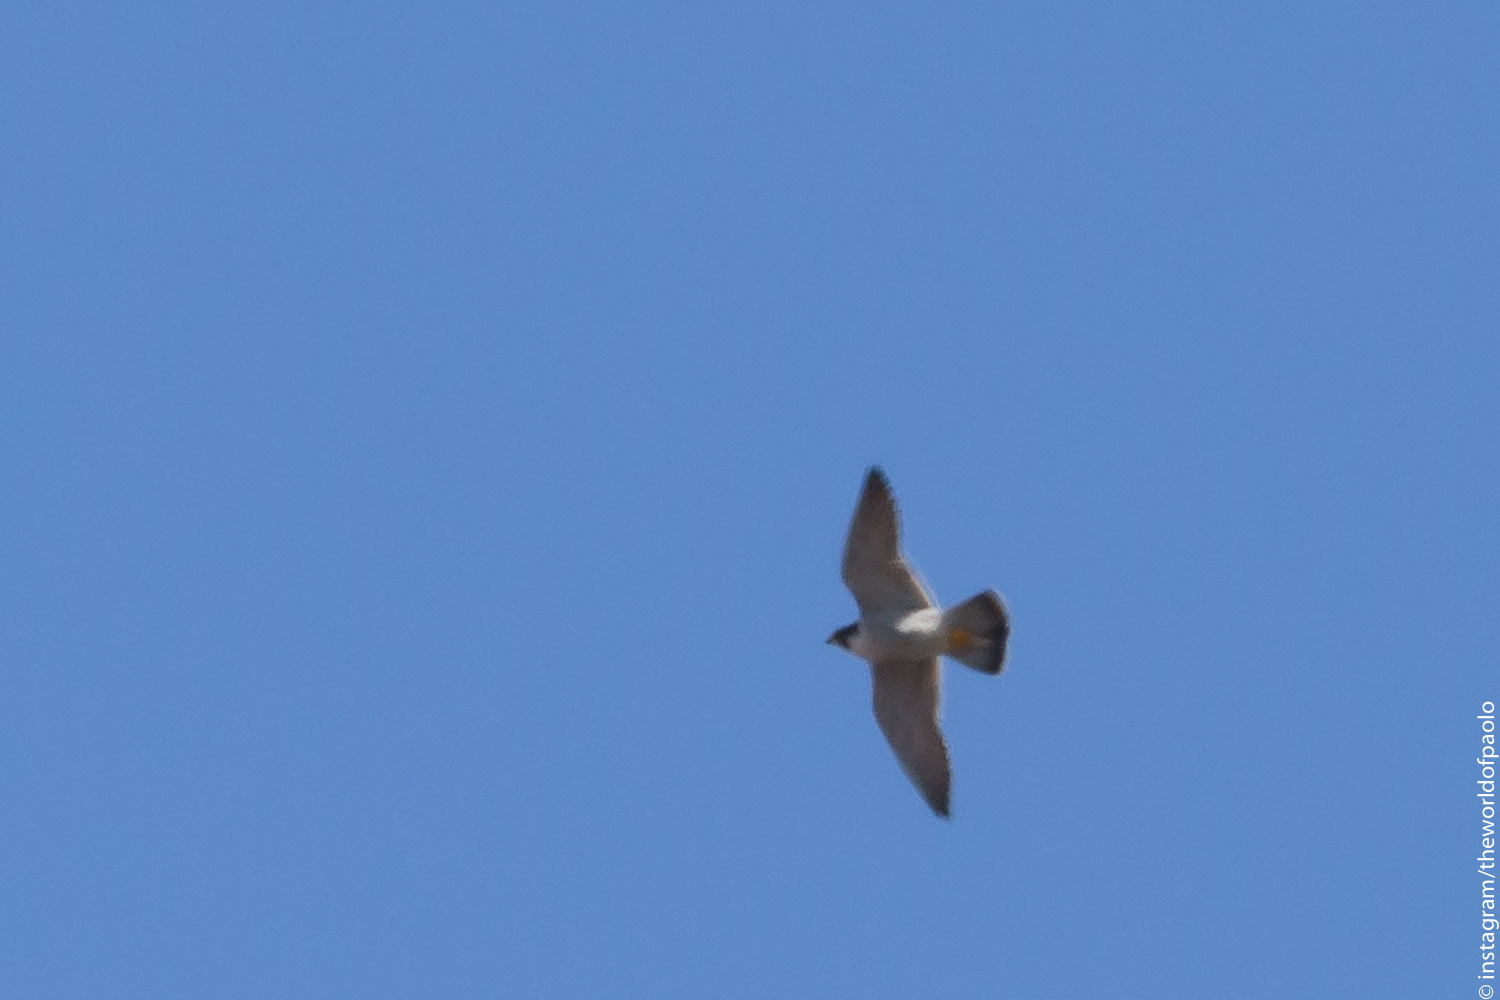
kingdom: Animalia
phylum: Chordata
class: Aves
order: Falconiformes
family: Falconidae
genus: Falco
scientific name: Falco peregrinus
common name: Peregrine falcon
